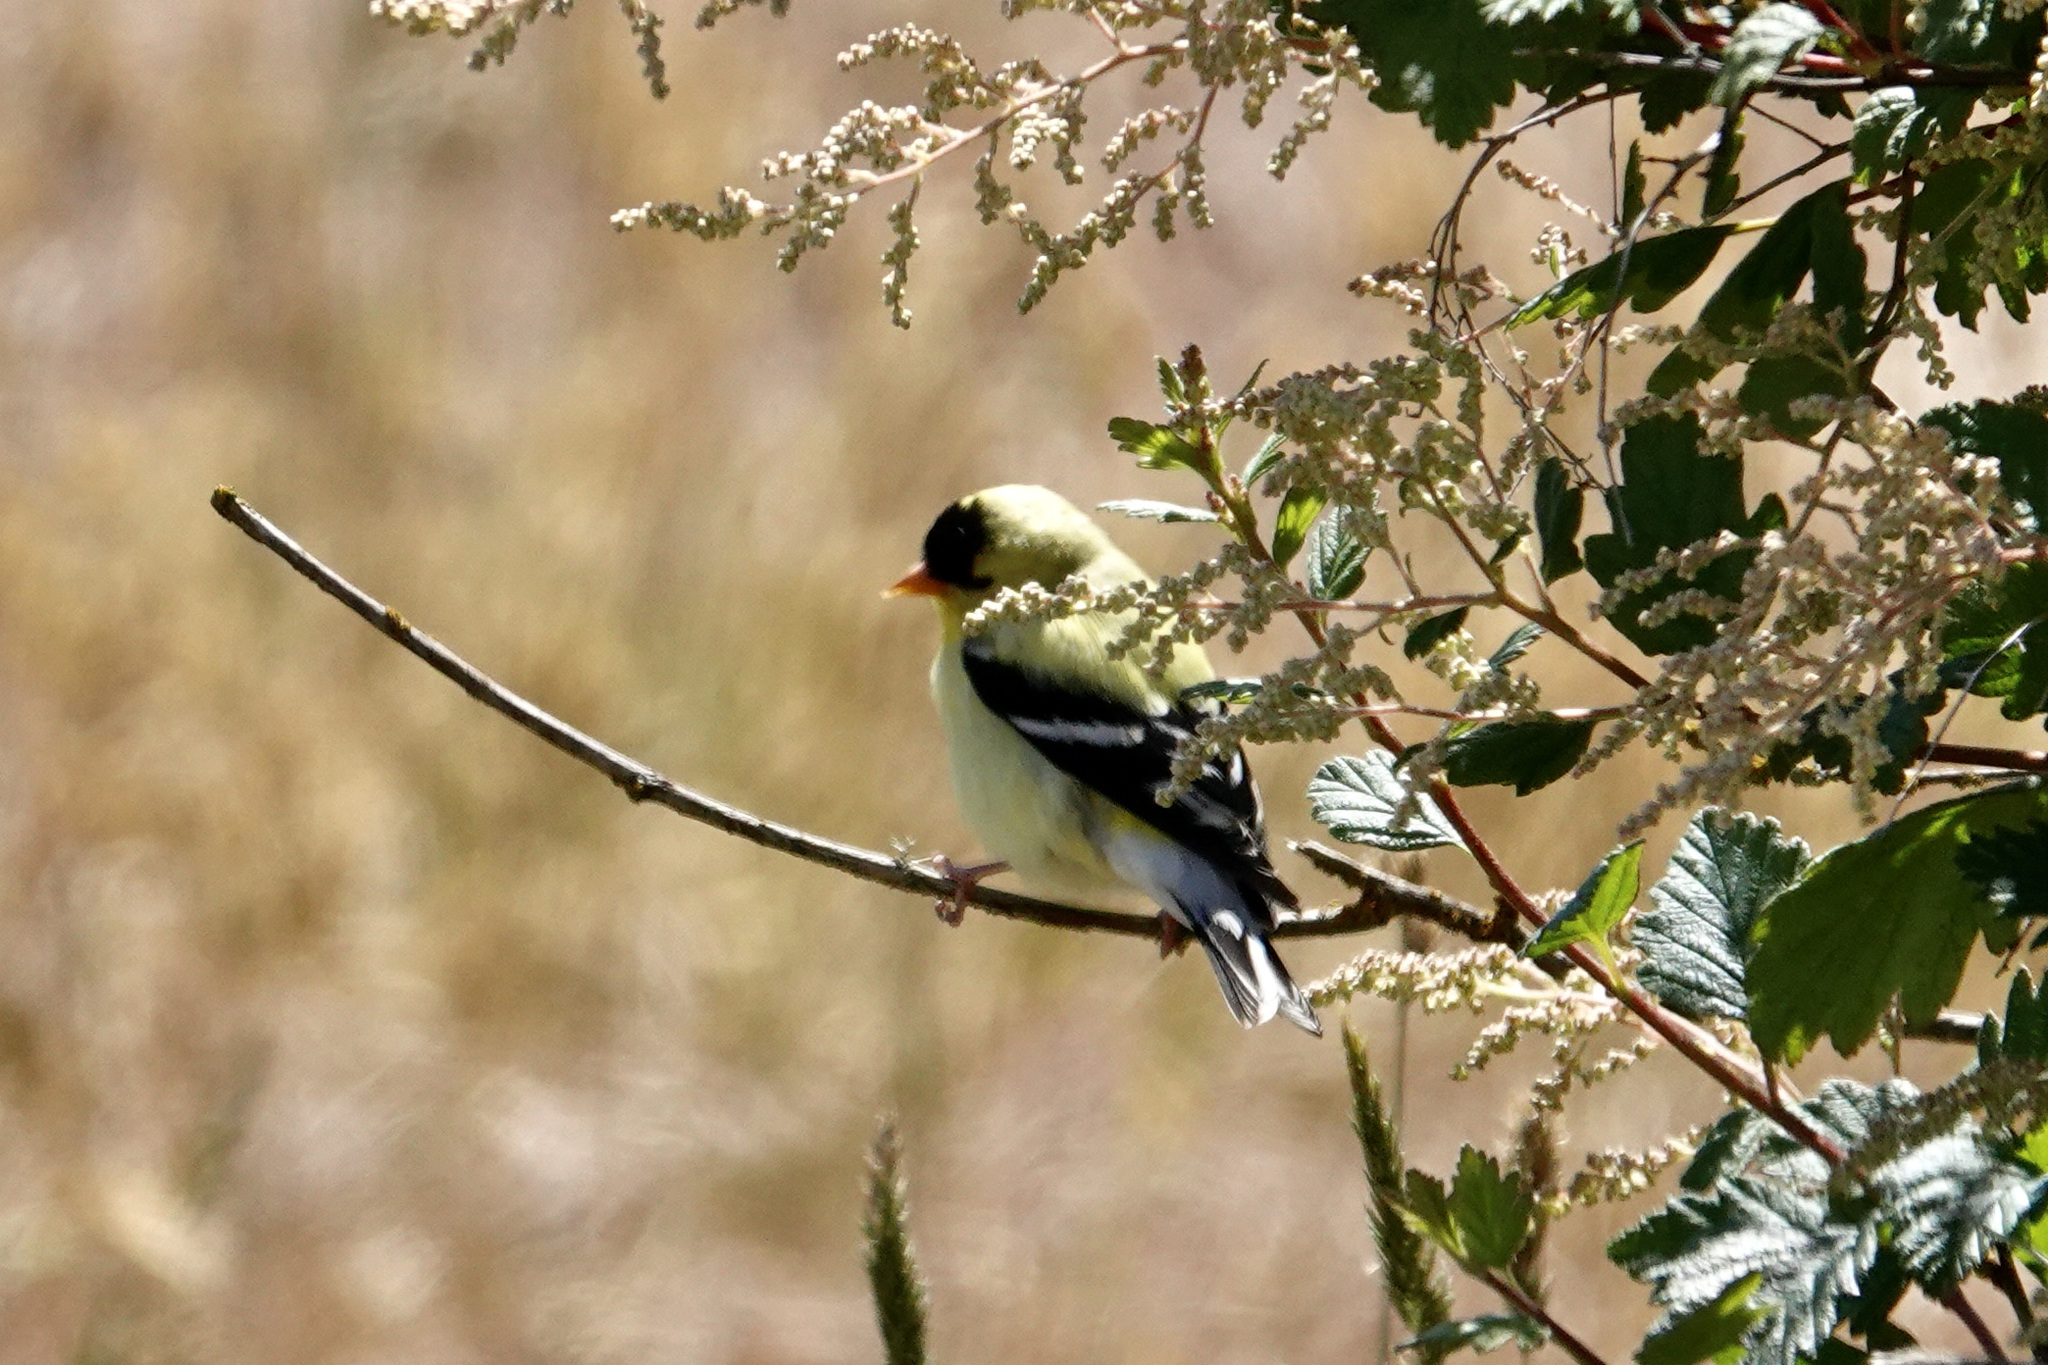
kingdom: Animalia
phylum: Chordata
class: Aves
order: Passeriformes
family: Fringillidae
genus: Spinus
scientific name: Spinus tristis
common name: American goldfinch
